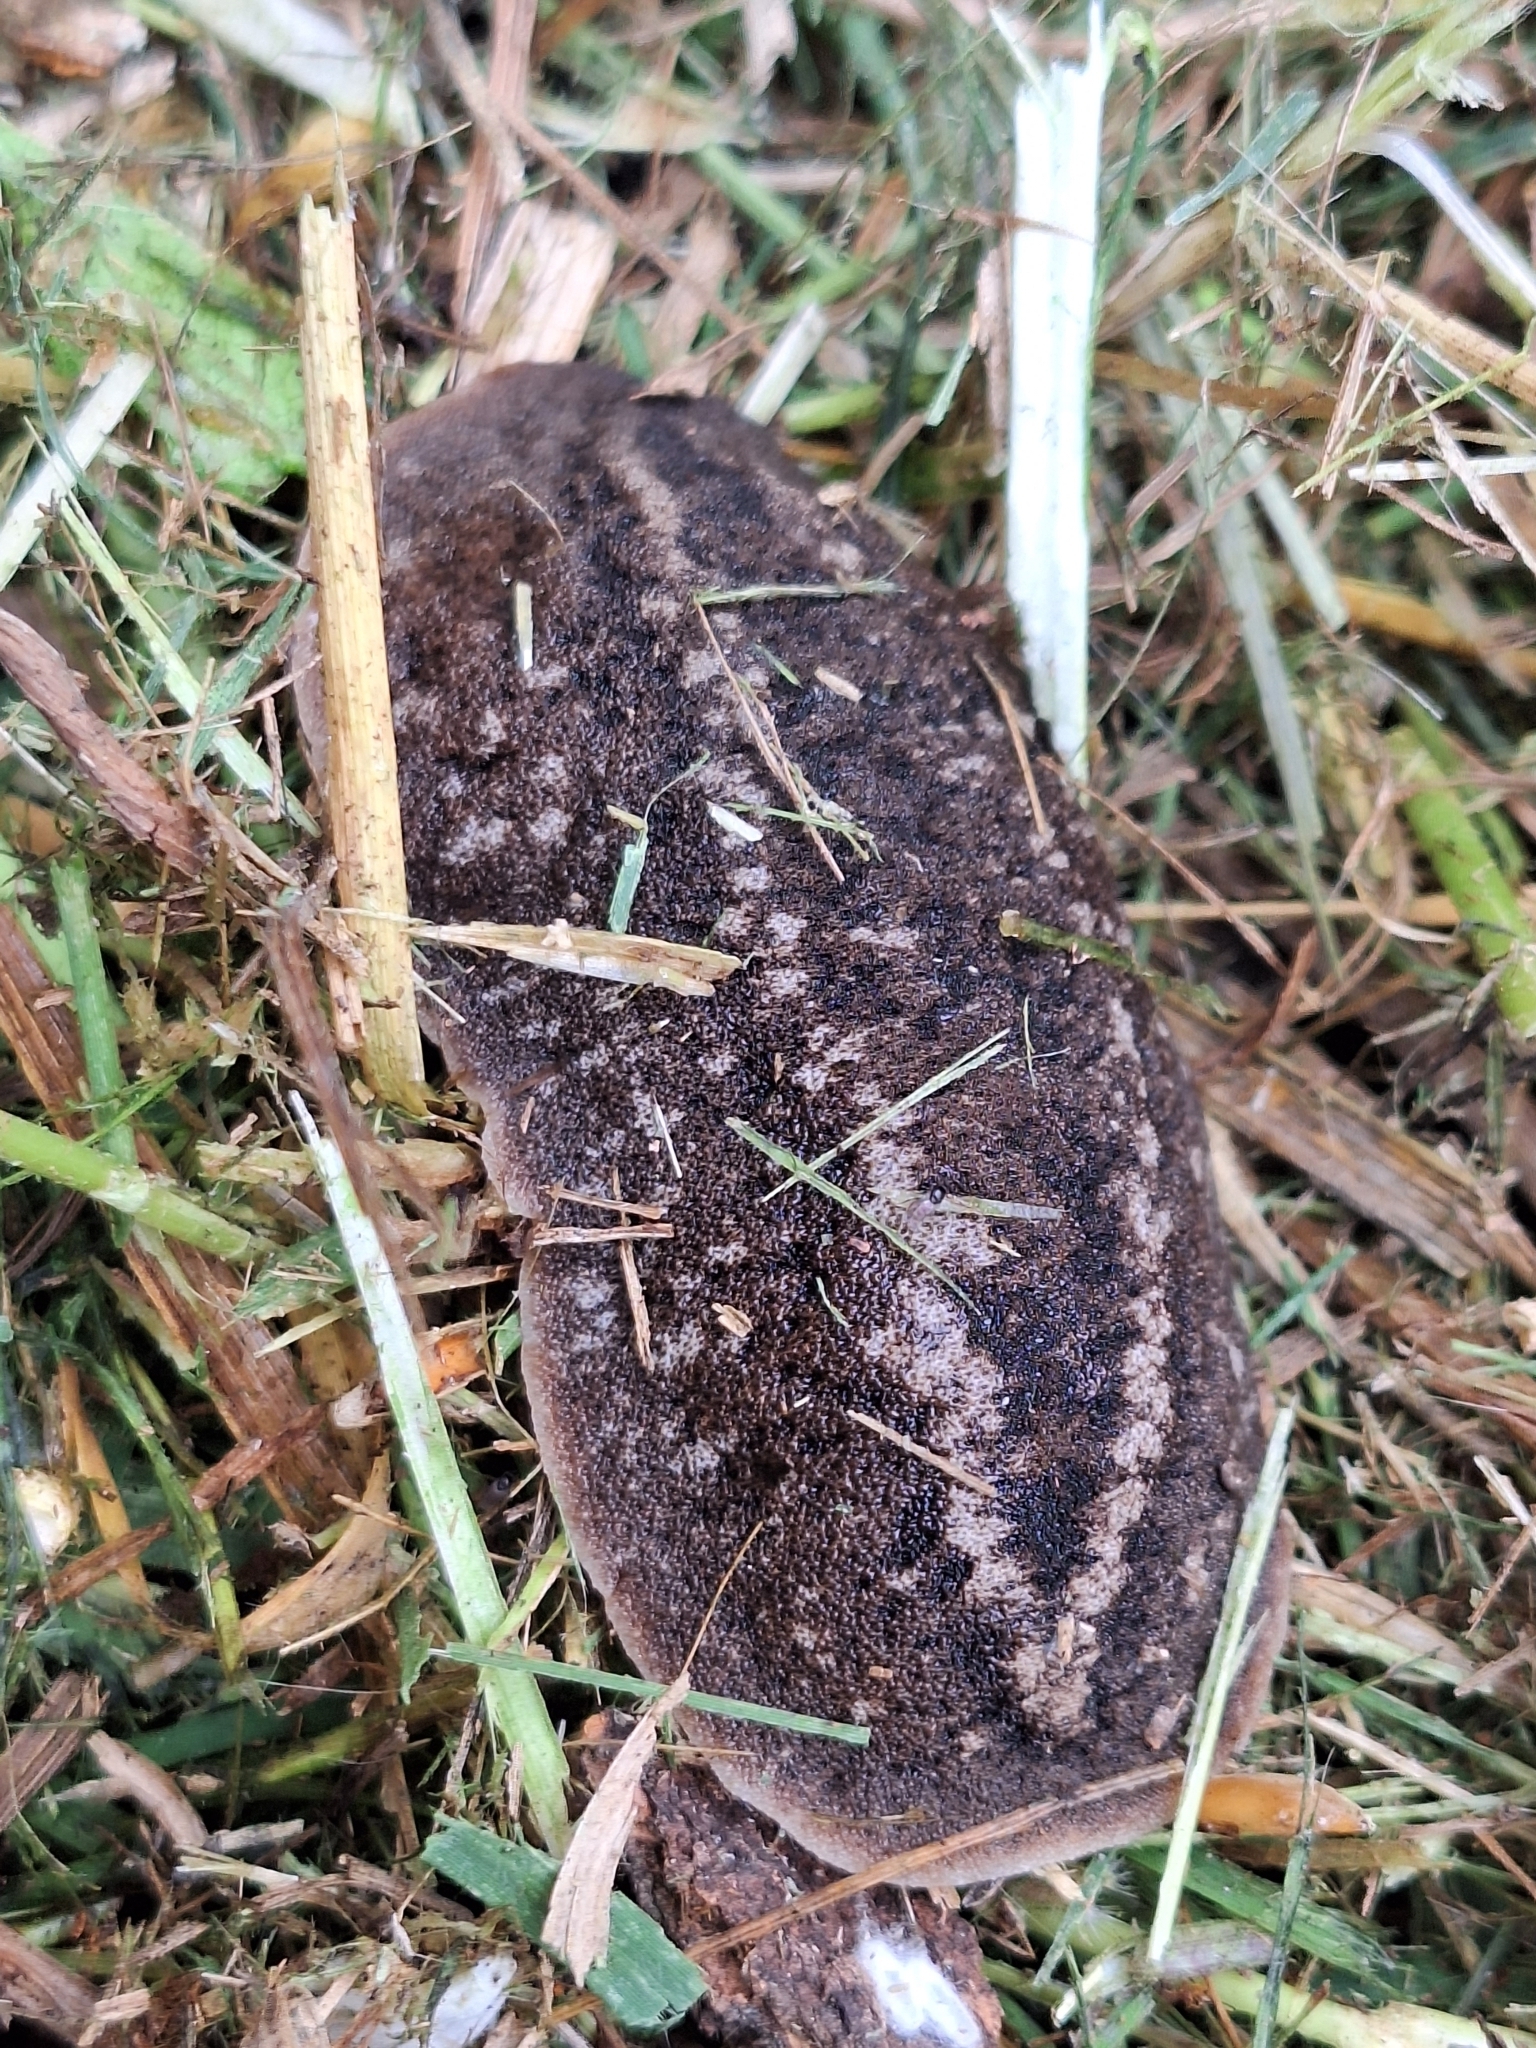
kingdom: Animalia
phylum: Mollusca
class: Gastropoda
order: Systellommatophora
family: Veronicellidae
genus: Phyllocaulis
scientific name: Phyllocaulis soleiformis
